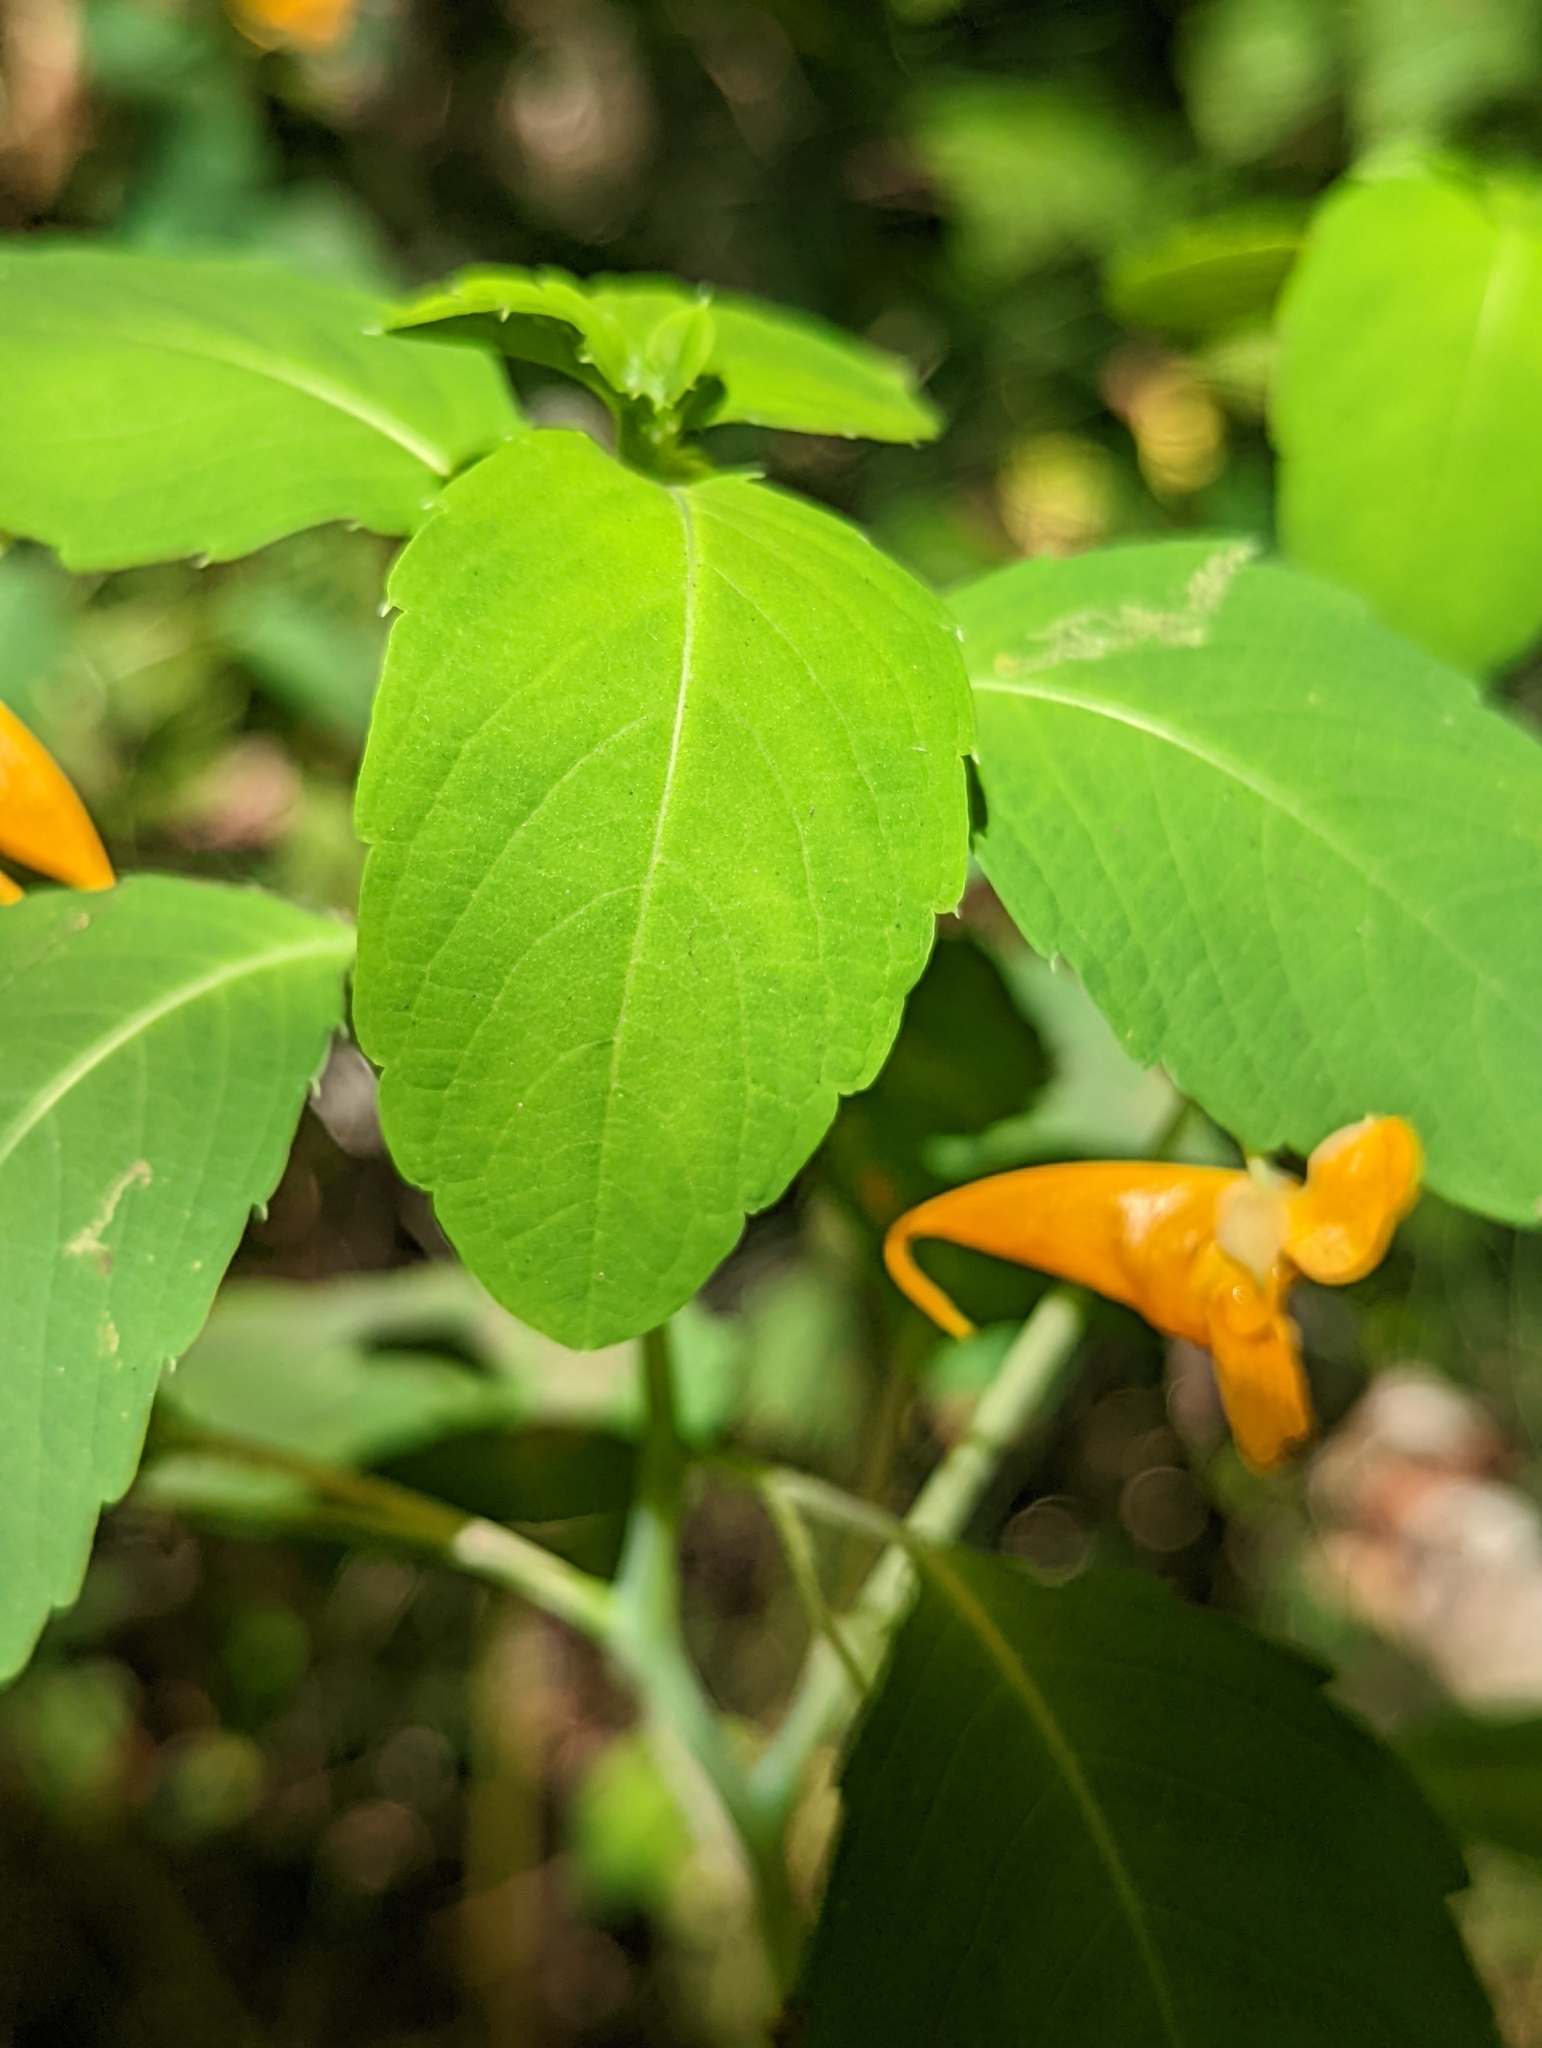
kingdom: Plantae
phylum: Tracheophyta
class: Magnoliopsida
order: Ericales
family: Balsaminaceae
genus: Impatiens
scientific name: Impatiens capensis
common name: Orange balsam
